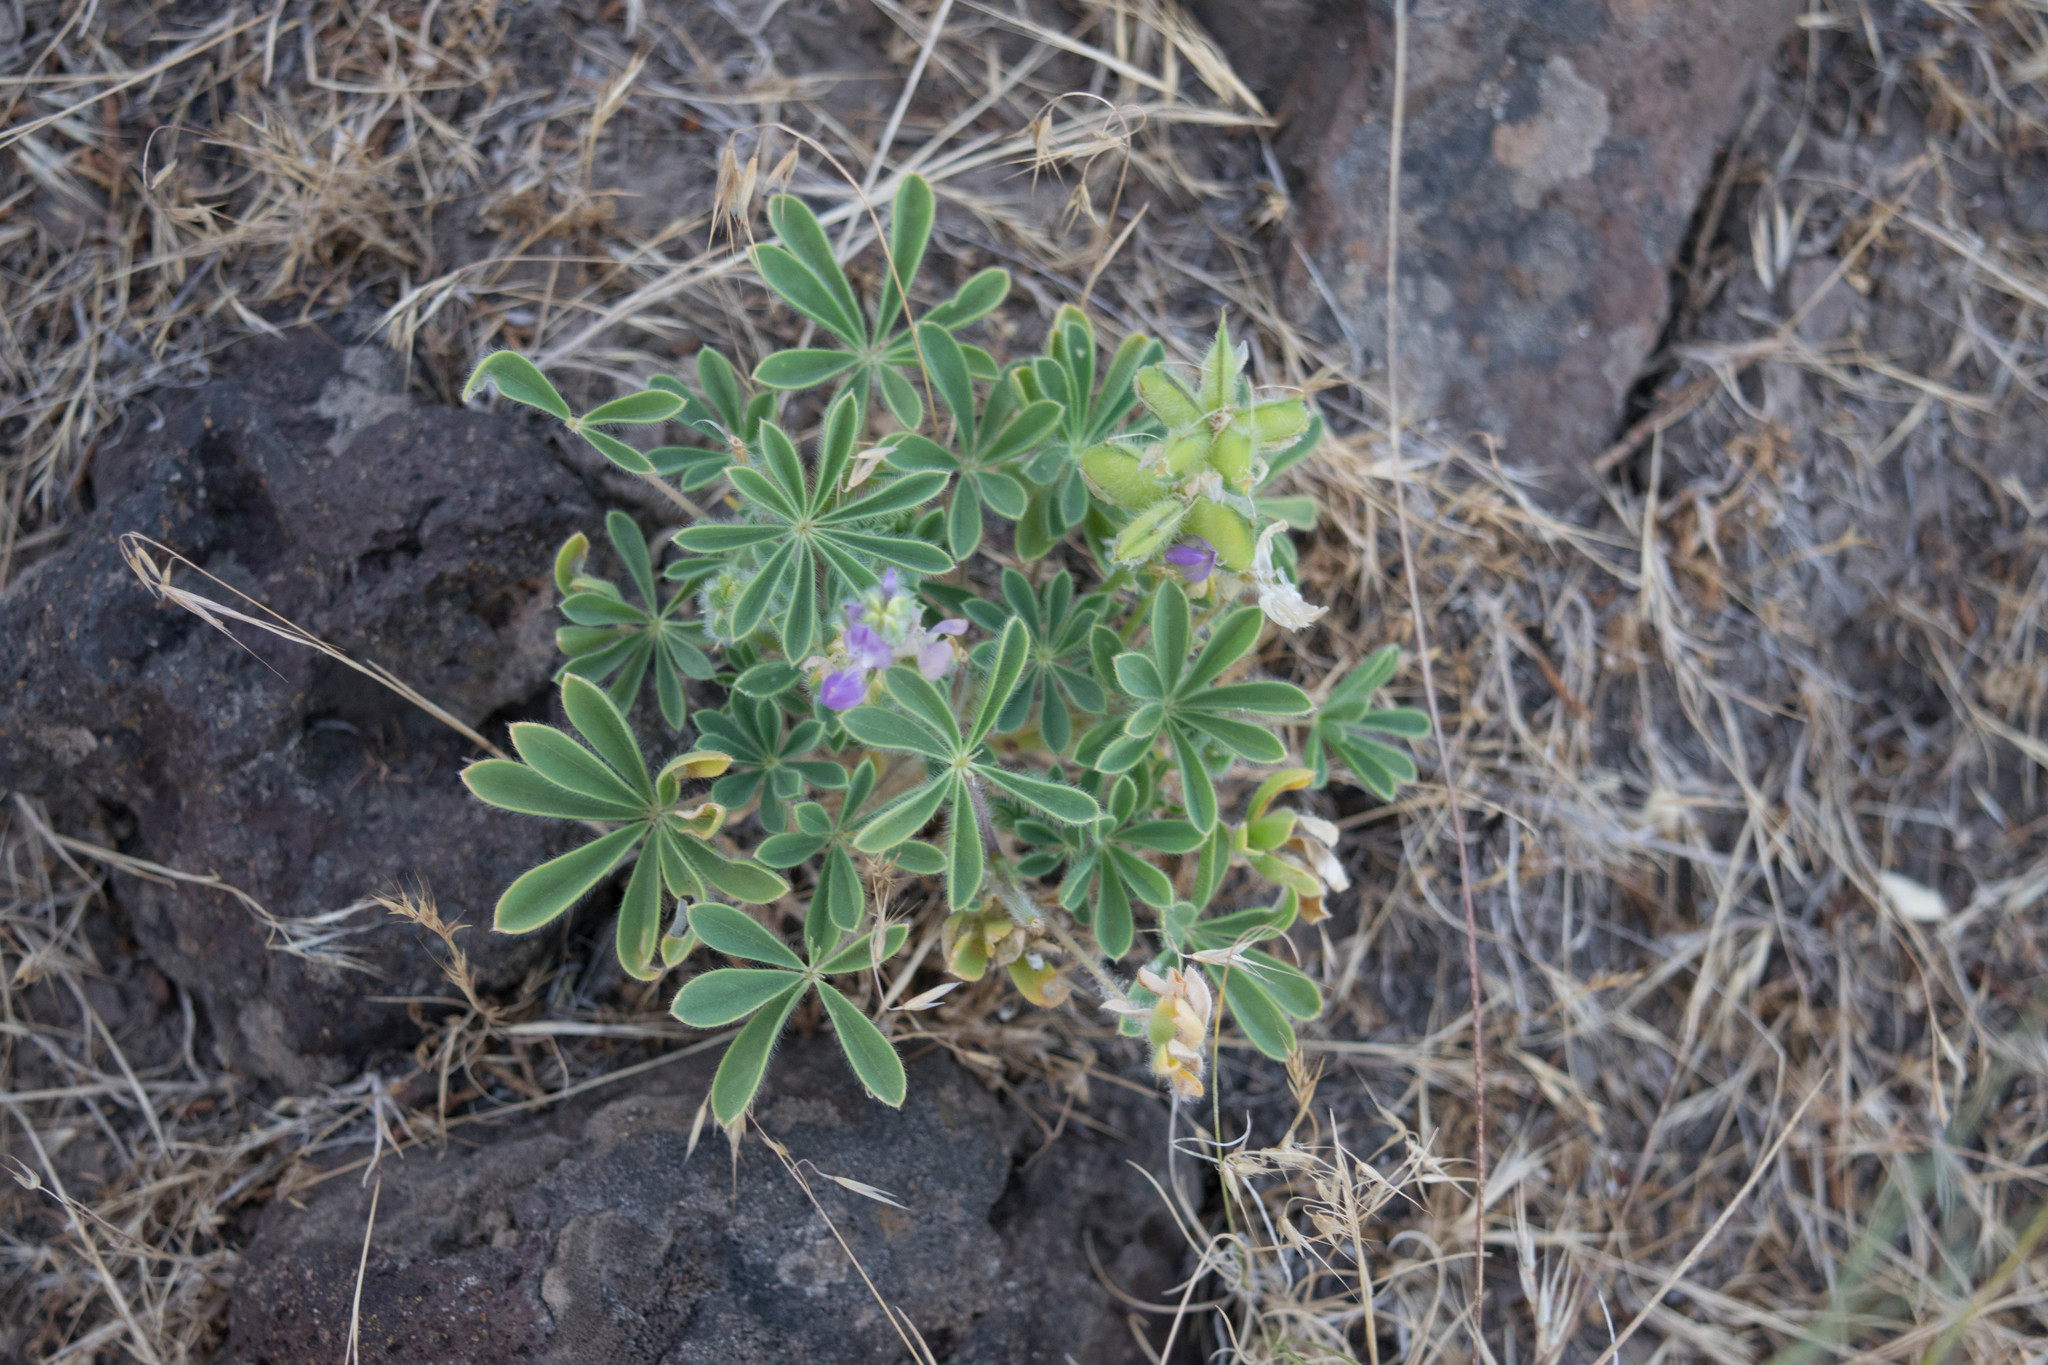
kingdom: Plantae
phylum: Tracheophyta
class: Magnoliopsida
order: Fabales
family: Fabaceae
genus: Lupinus
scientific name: Lupinus microcarpus
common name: Chick lupine
